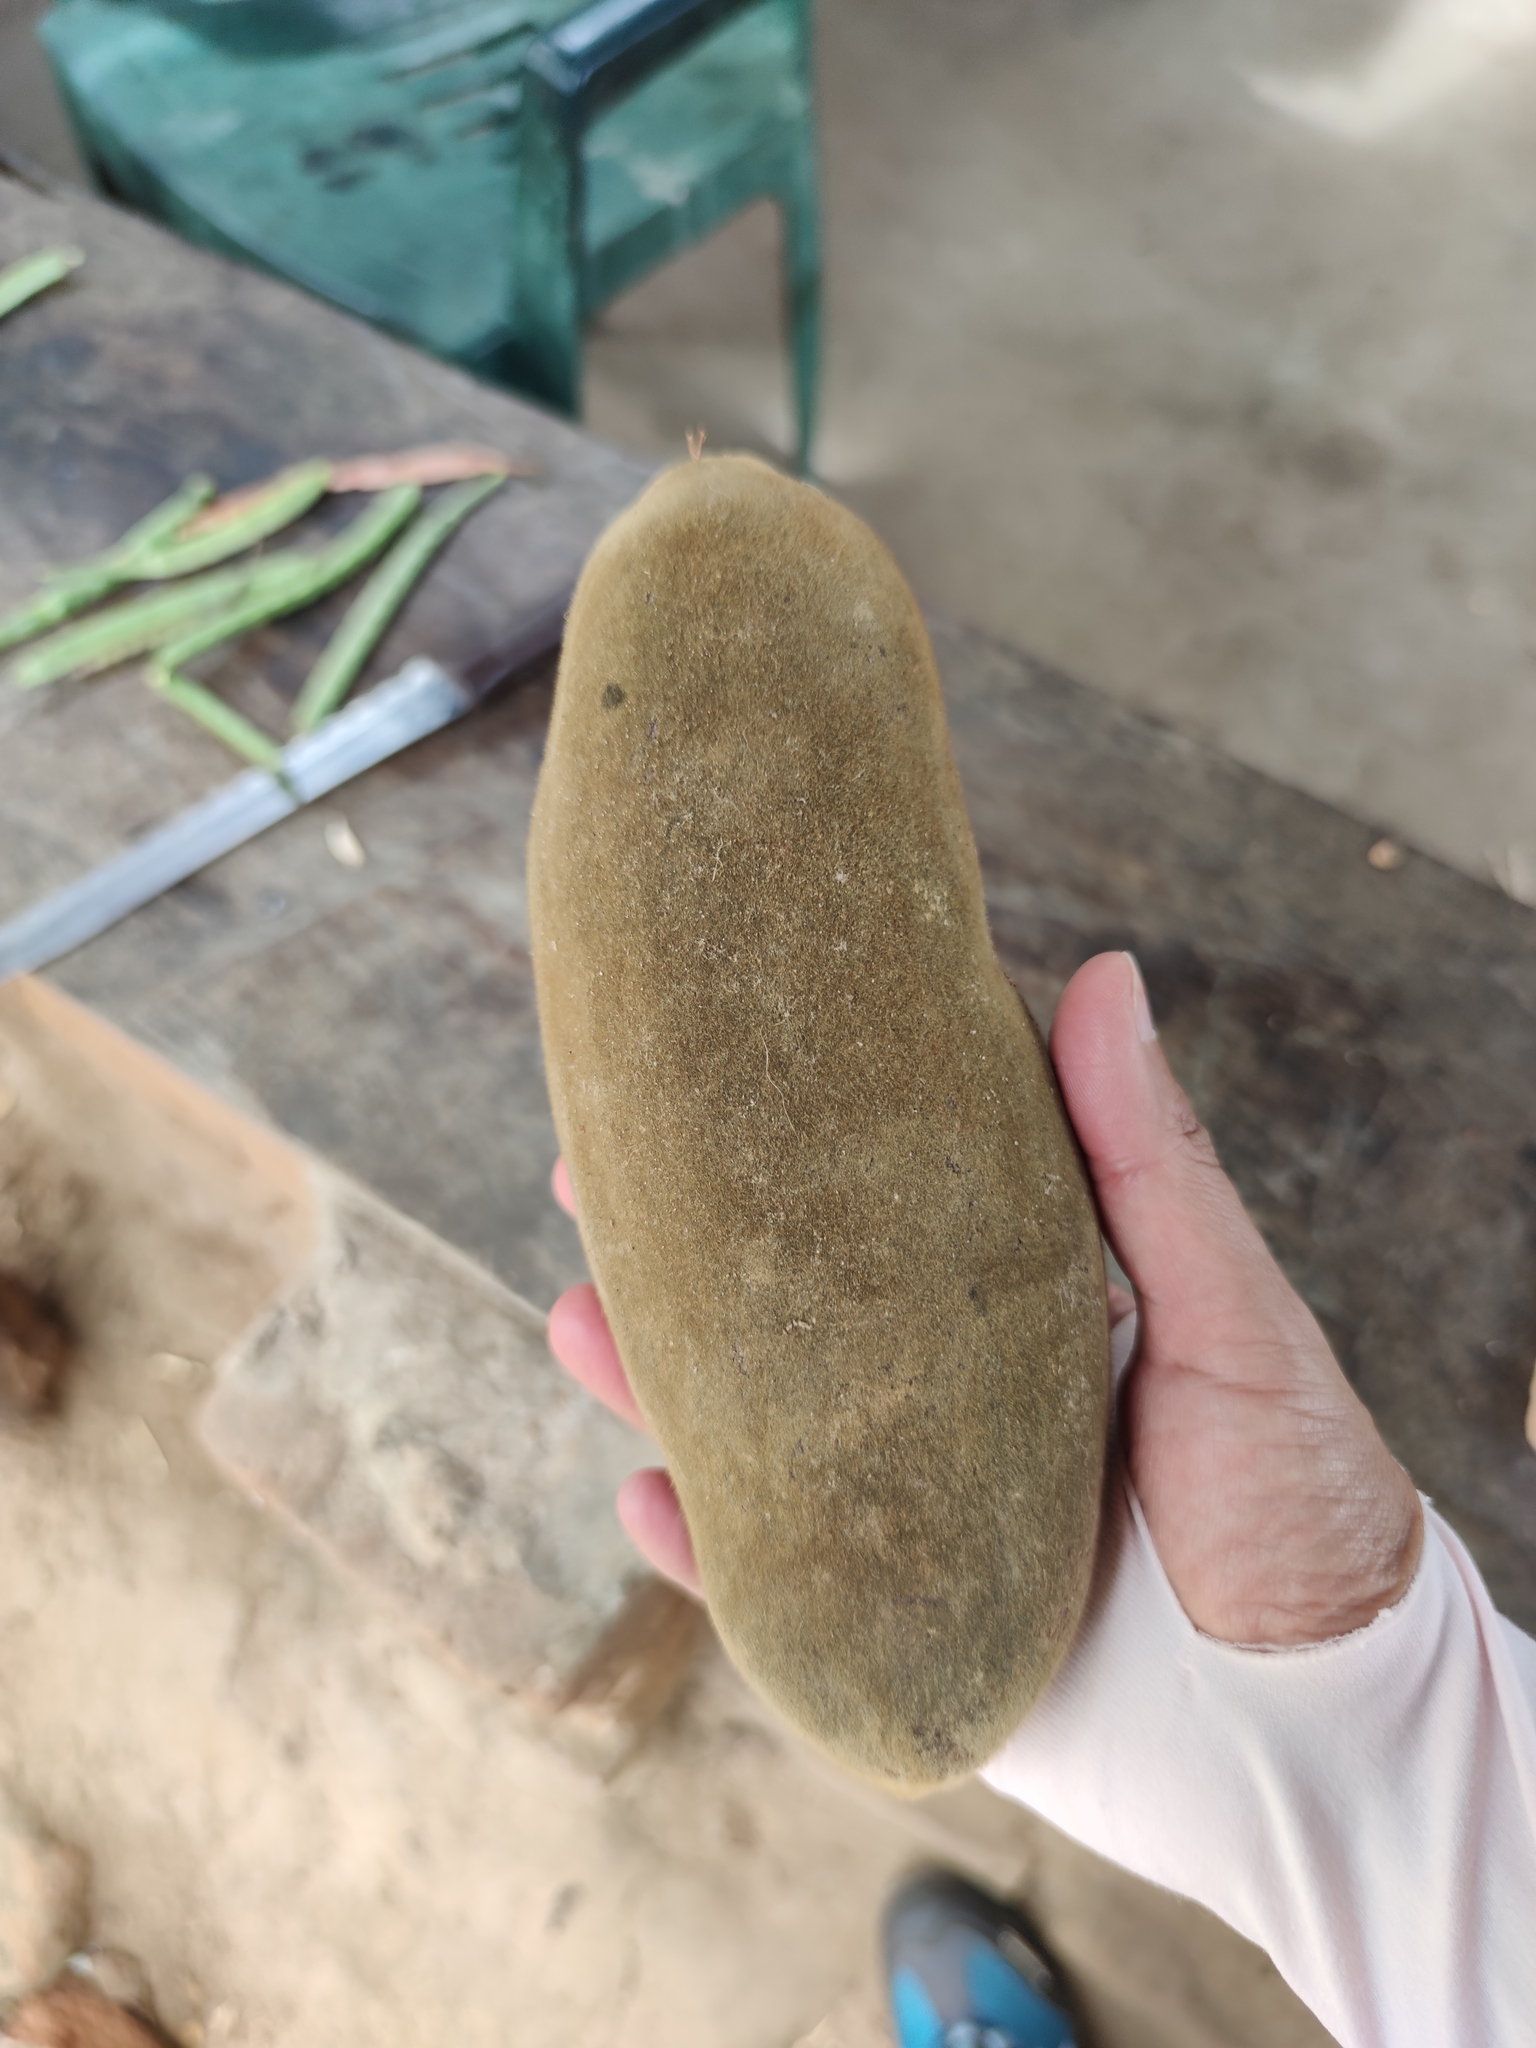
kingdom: Plantae
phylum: Tracheophyta
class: Magnoliopsida
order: Malvales
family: Malvaceae
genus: Adansonia
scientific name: Adansonia digitata
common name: Dead-rat-tree
